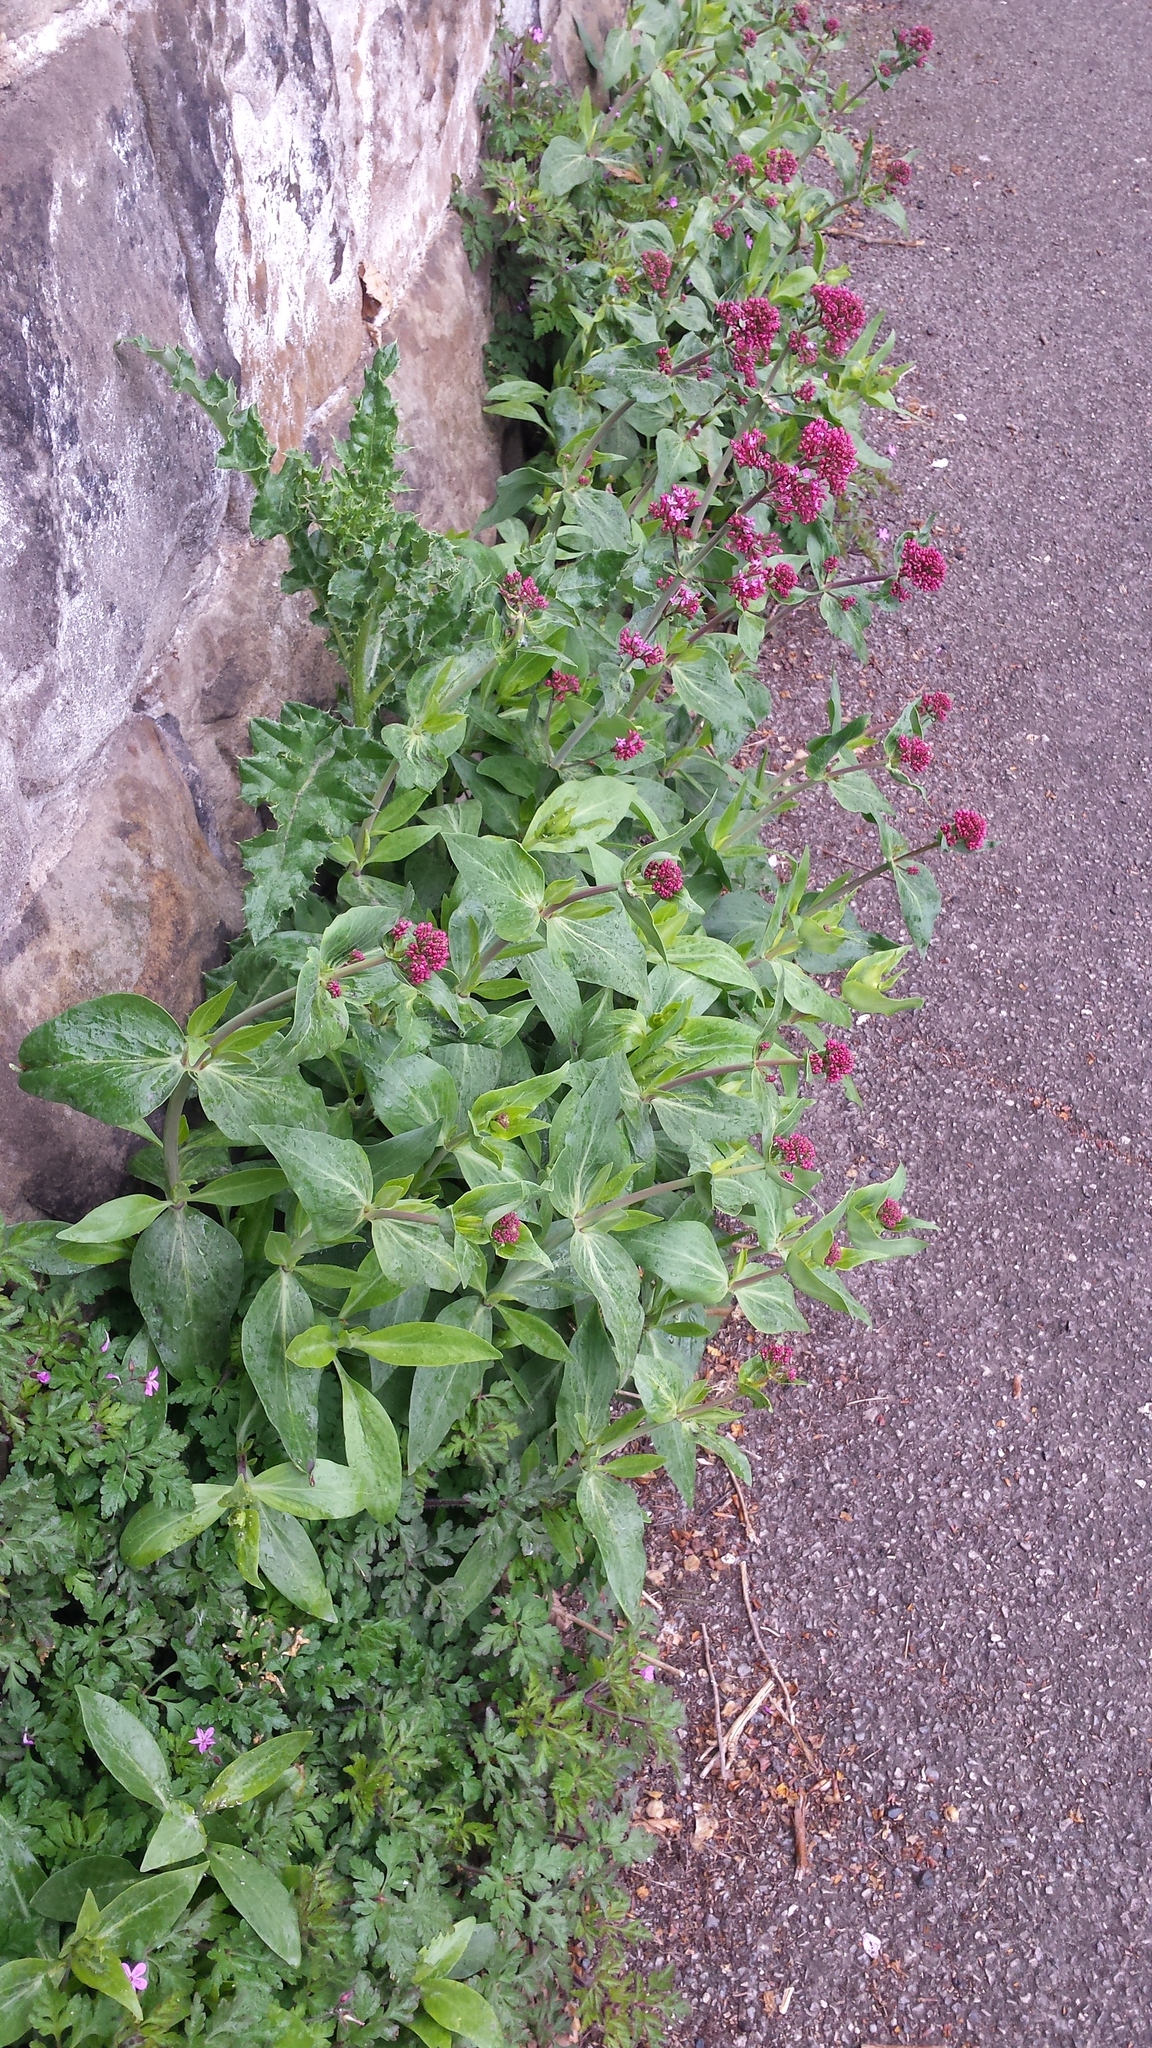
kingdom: Plantae
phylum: Tracheophyta
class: Magnoliopsida
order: Dipsacales
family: Caprifoliaceae
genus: Centranthus
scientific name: Centranthus ruber
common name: Red valerian
